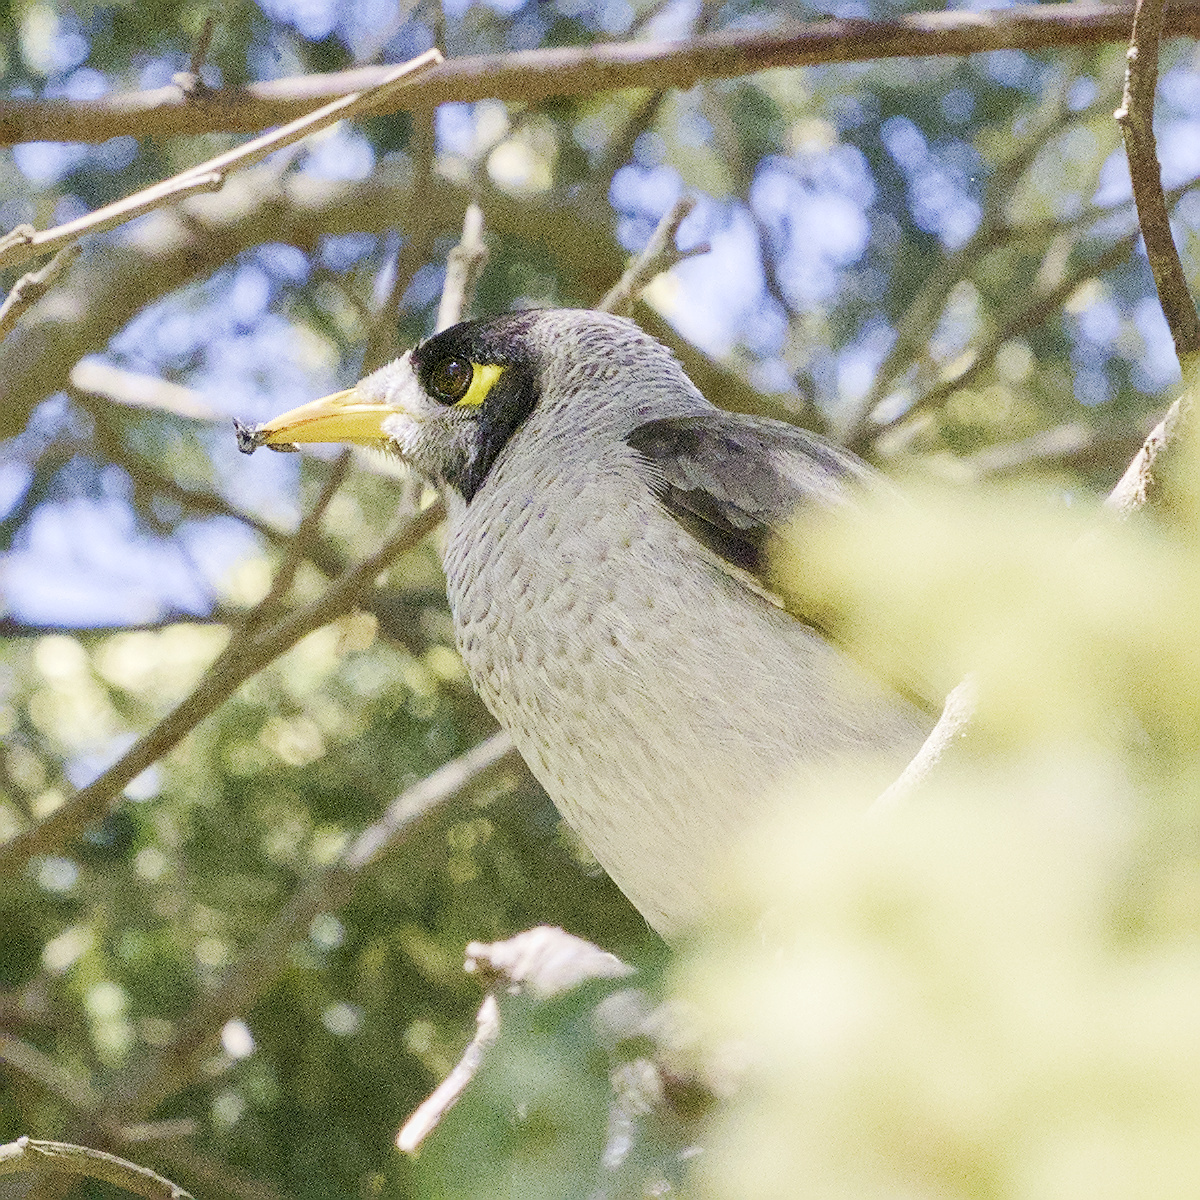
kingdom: Animalia
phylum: Chordata
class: Aves
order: Passeriformes
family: Meliphagidae
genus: Manorina
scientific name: Manorina melanocephala
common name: Noisy miner
